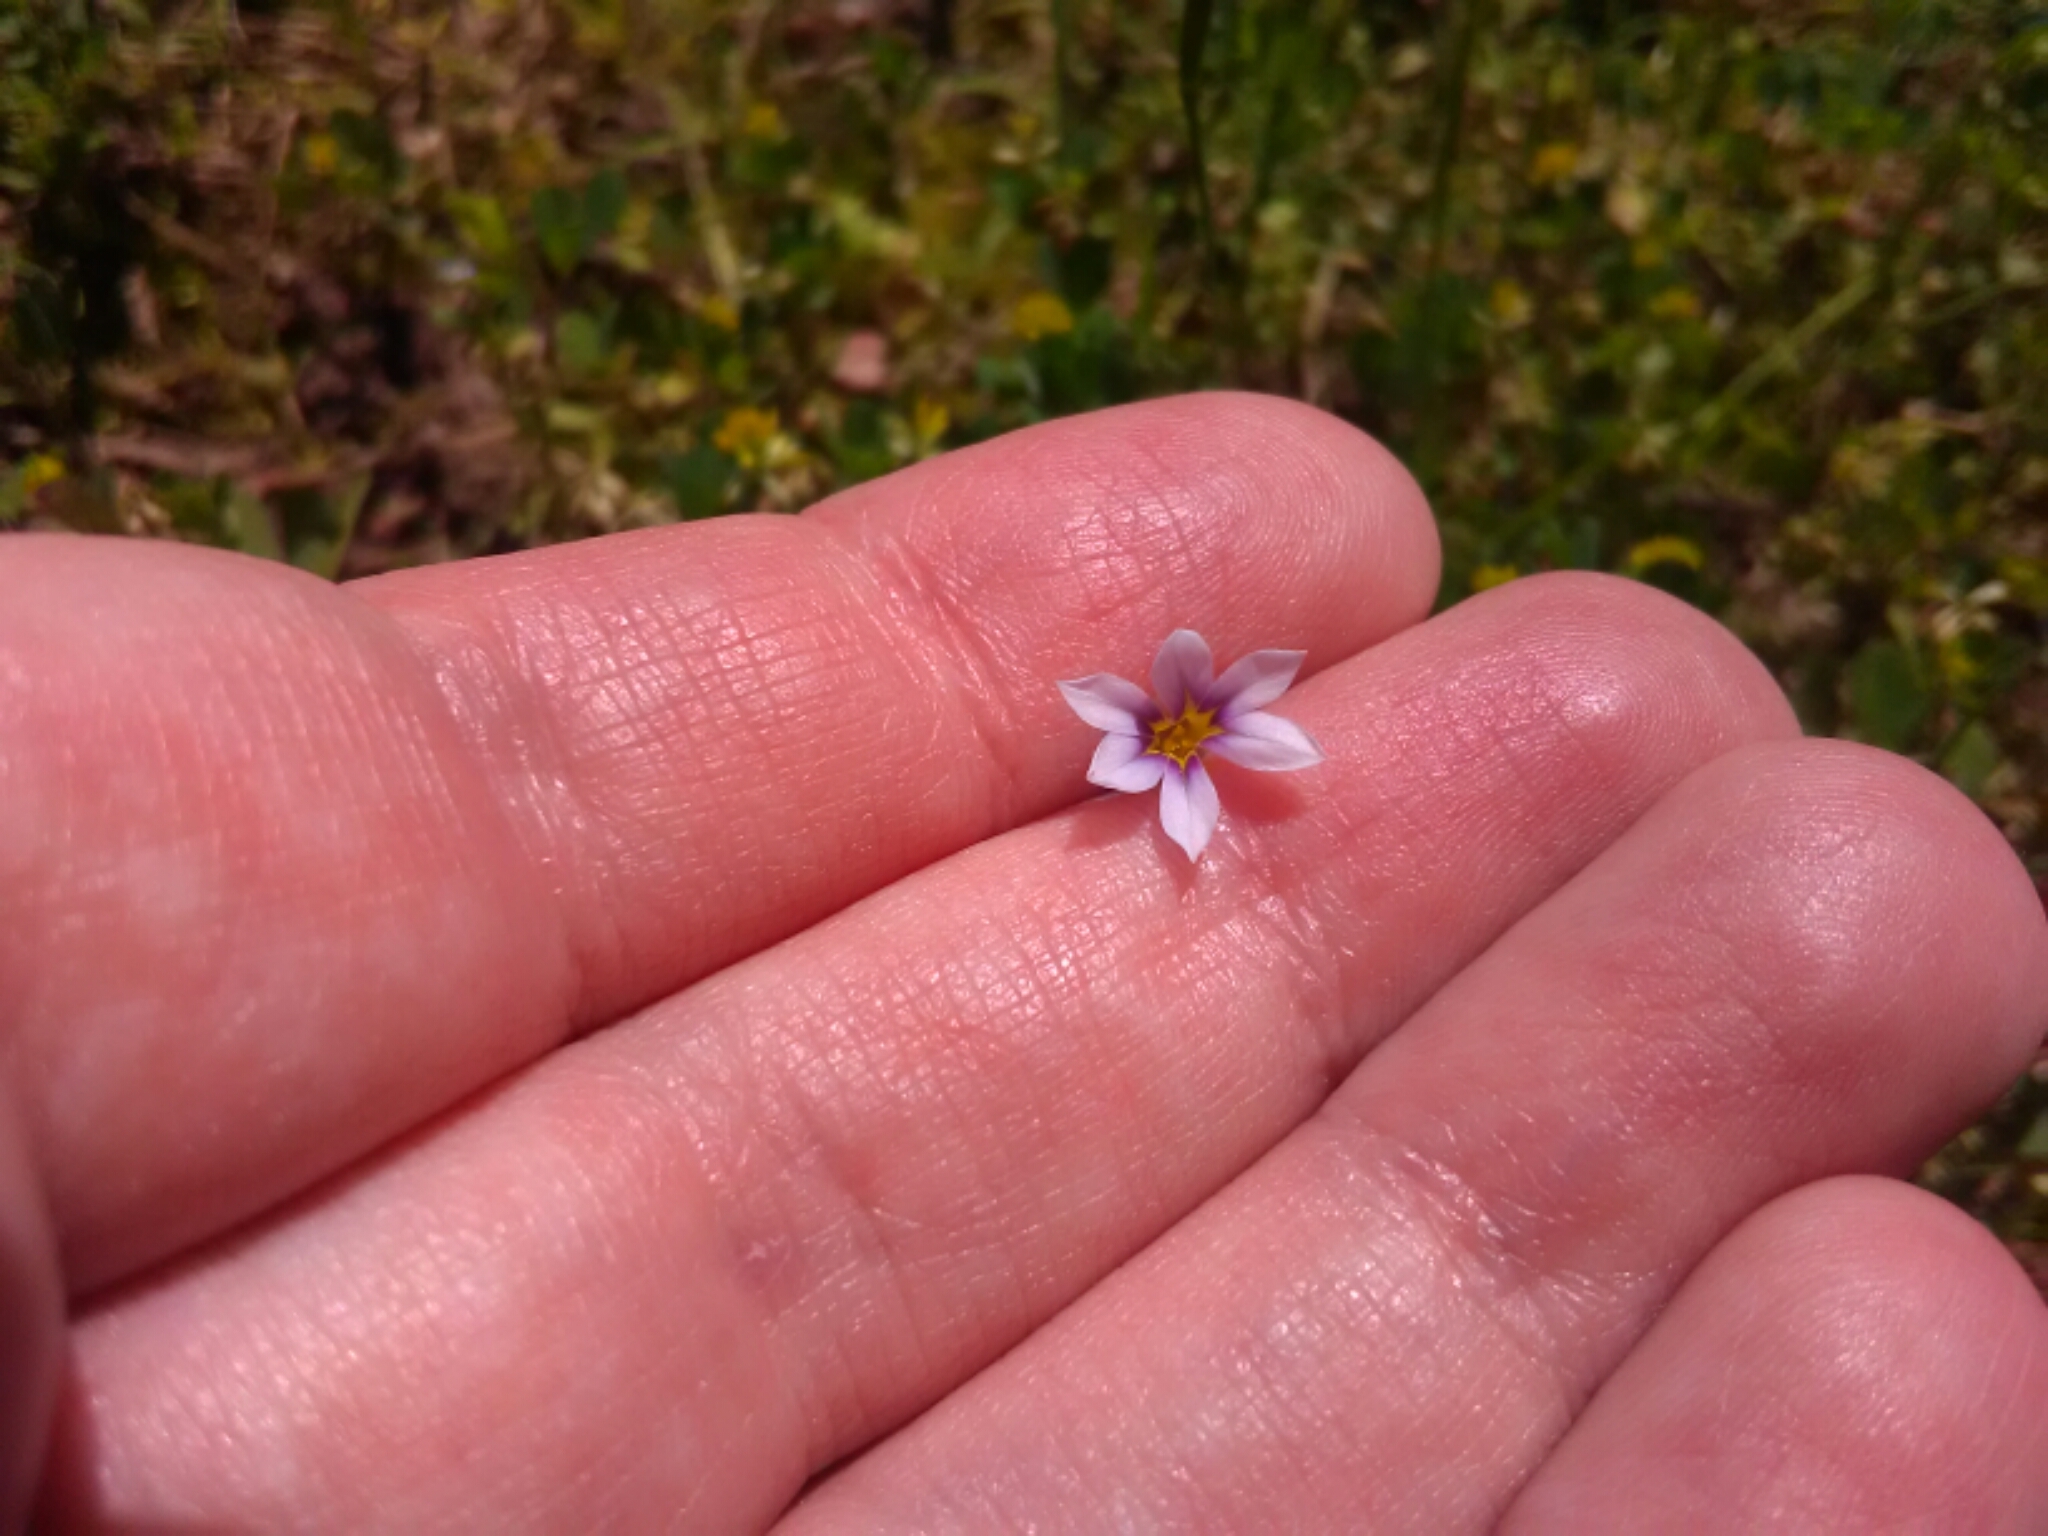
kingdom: Plantae
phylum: Tracheophyta
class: Liliopsida
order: Asparagales
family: Iridaceae
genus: Sisyrinchium
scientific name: Sisyrinchium micranthum
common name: Bermuda pigroot
